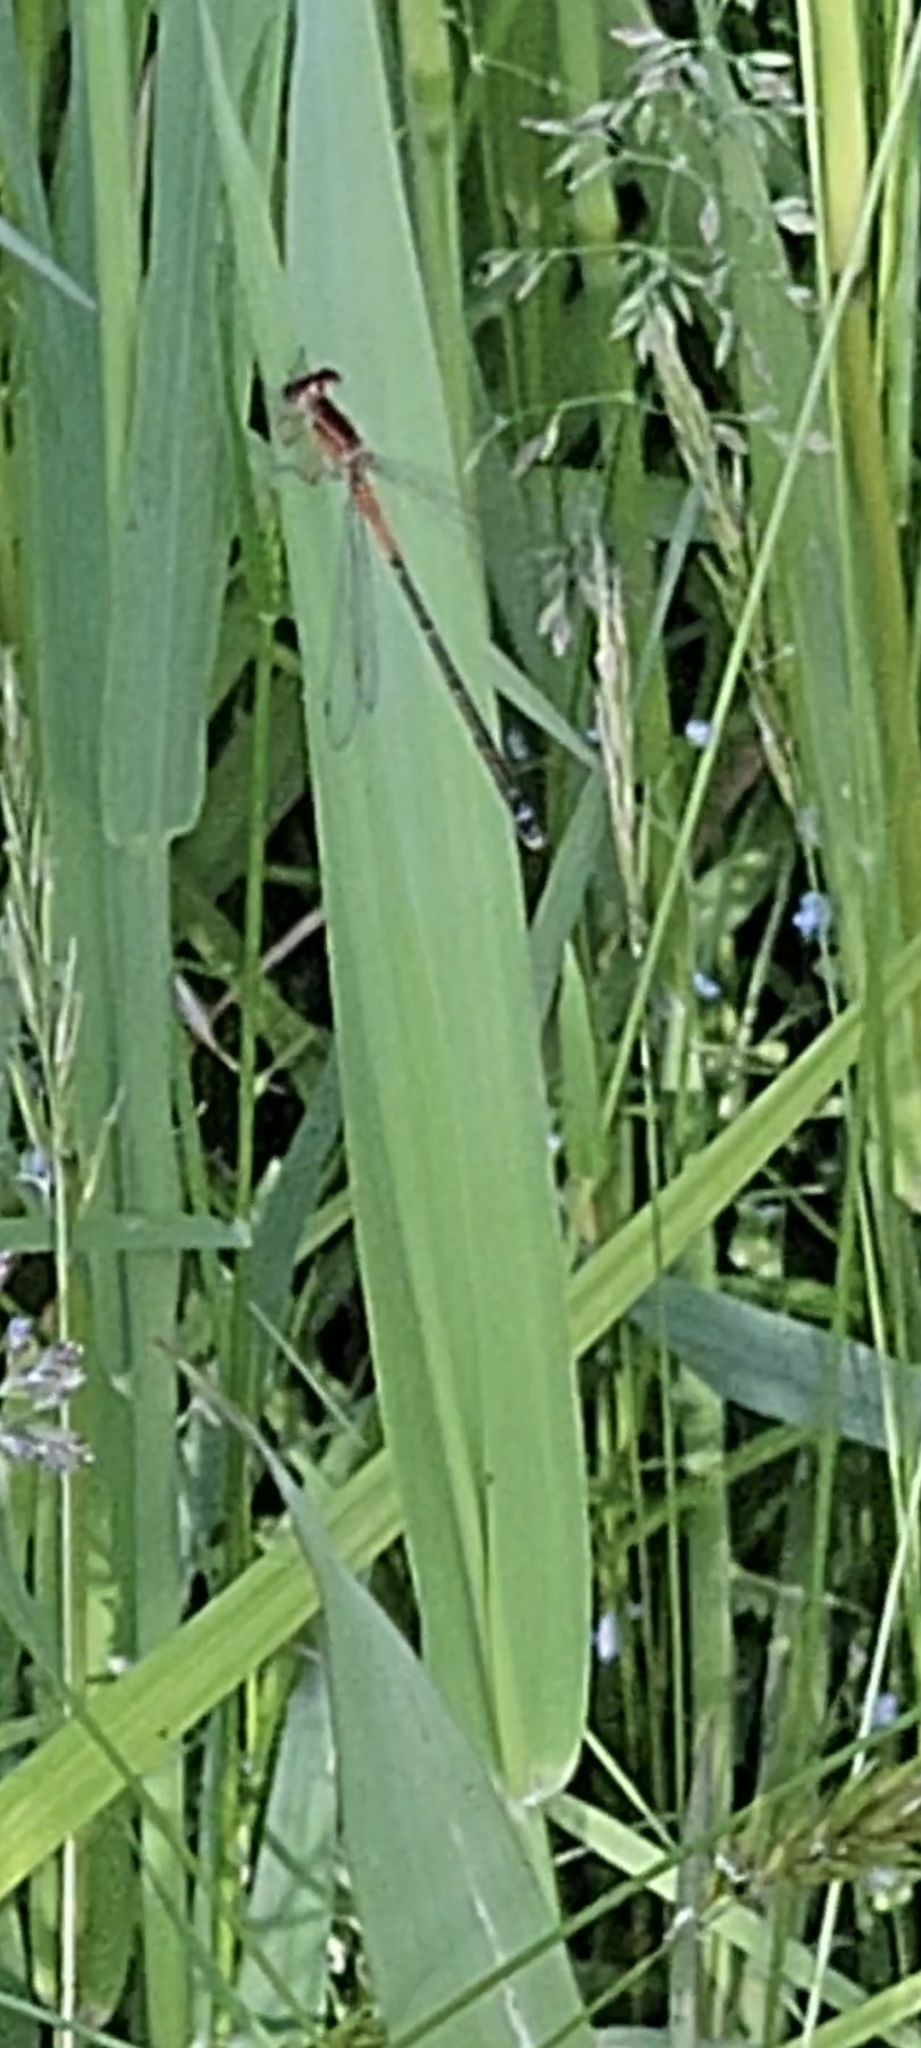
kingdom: Animalia
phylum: Arthropoda
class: Insecta
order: Odonata
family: Coenagrionidae
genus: Ischnura
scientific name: Ischnura verticalis
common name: Eastern forktail
